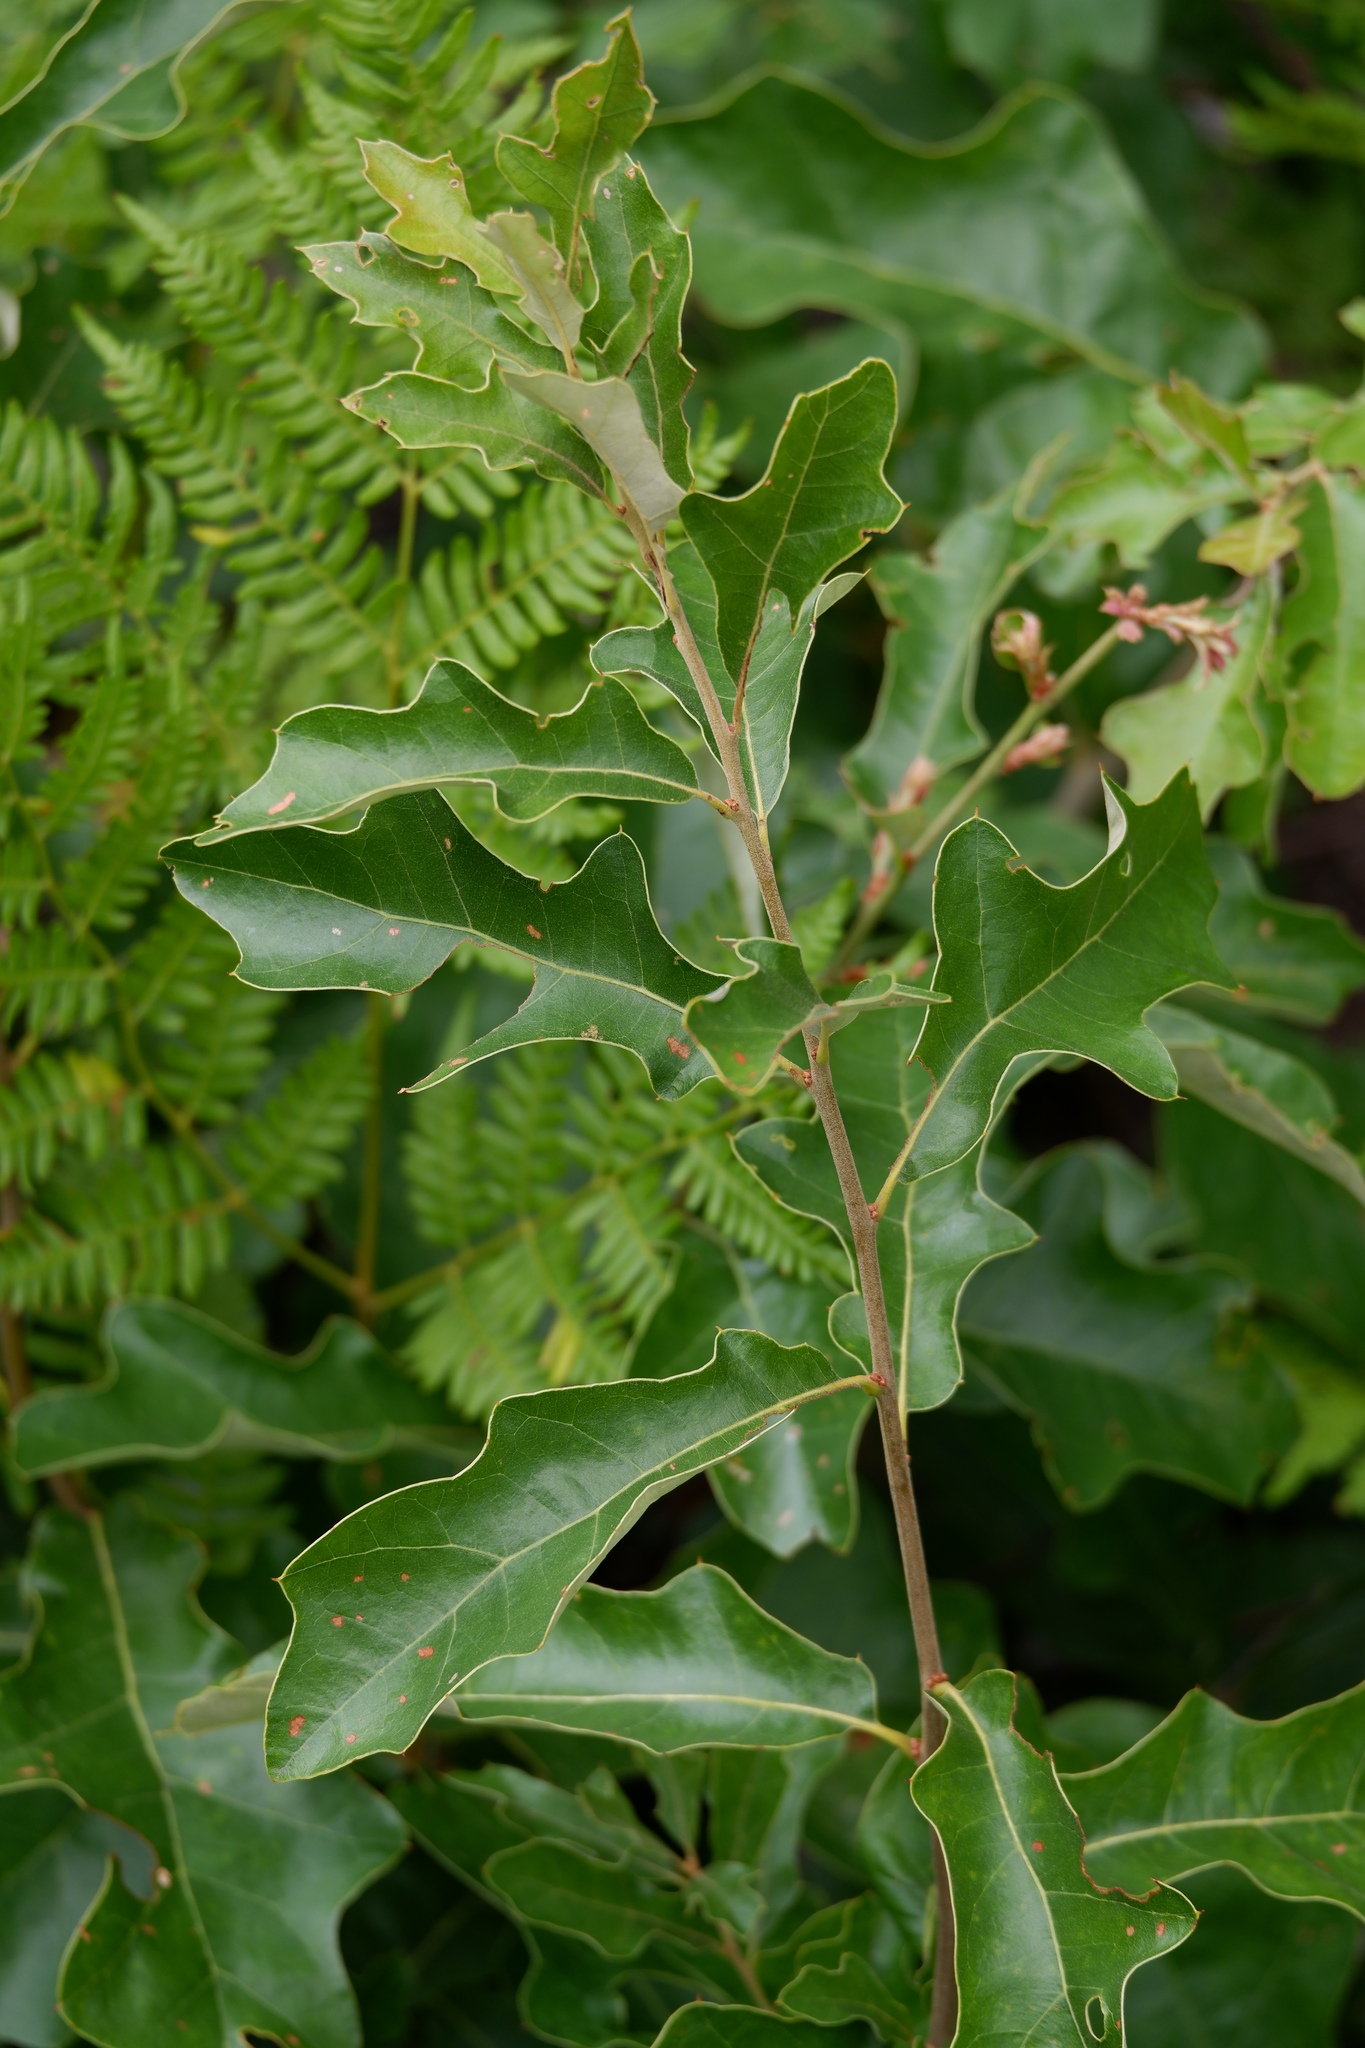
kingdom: Plantae
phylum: Tracheophyta
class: Magnoliopsida
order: Fagales
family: Fagaceae
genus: Quercus
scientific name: Quercus ilicifolia
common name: Bear oak
